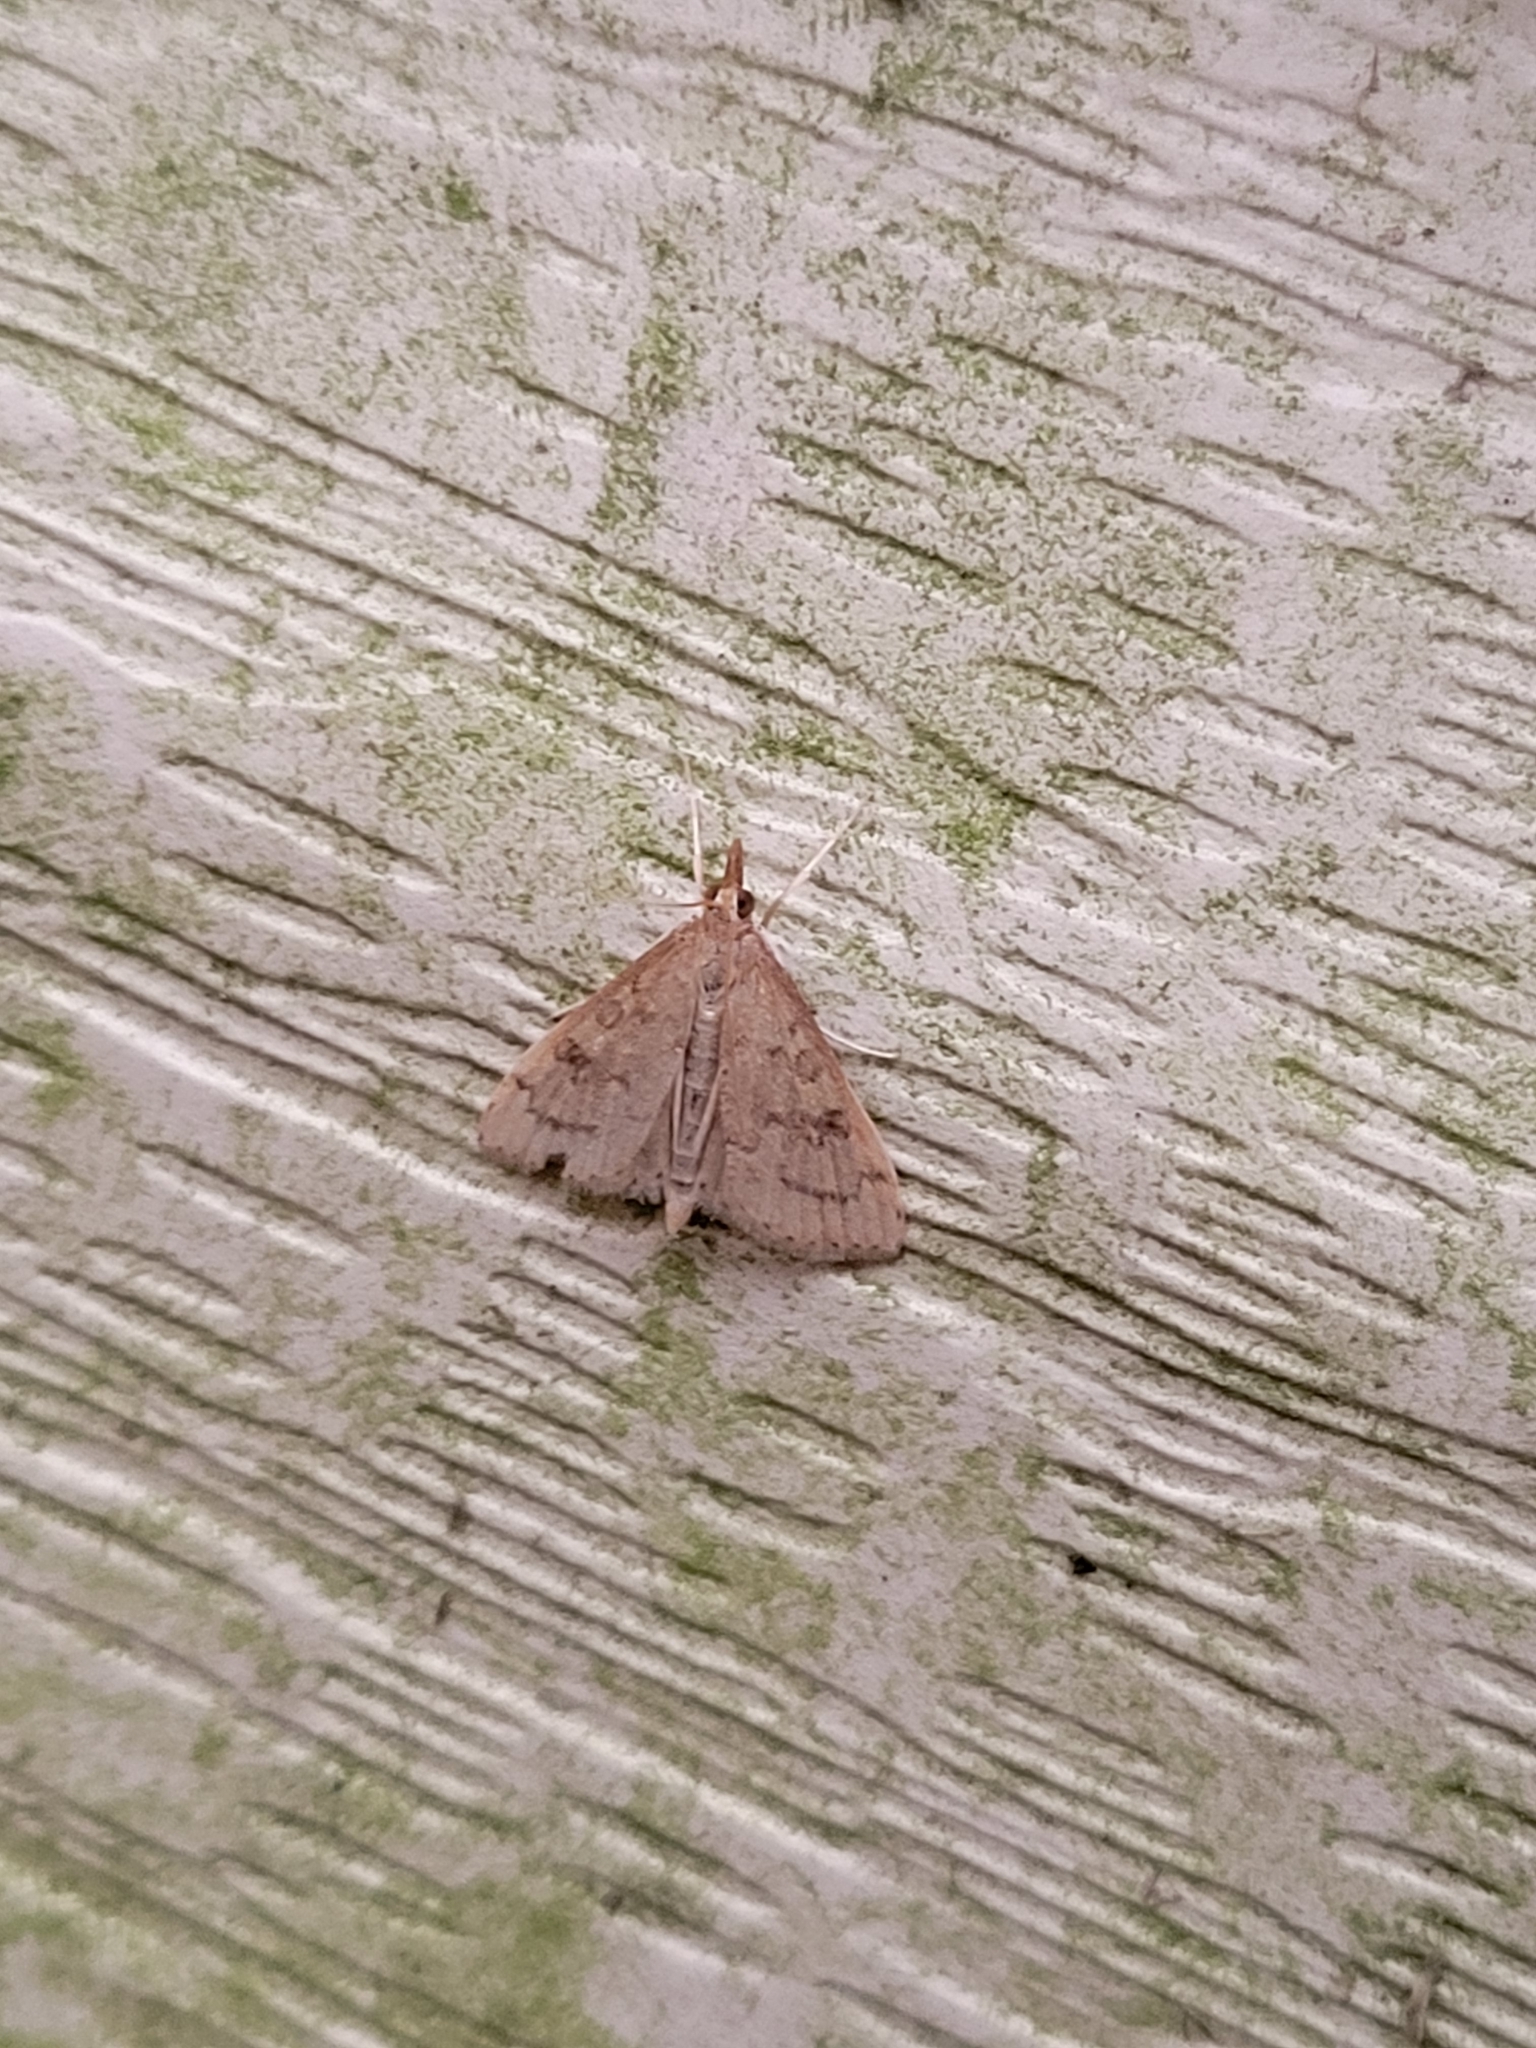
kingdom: Animalia
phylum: Arthropoda
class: Insecta
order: Lepidoptera
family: Crambidae
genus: Udea
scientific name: Udea rubigalis
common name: Celery leaftier moth
